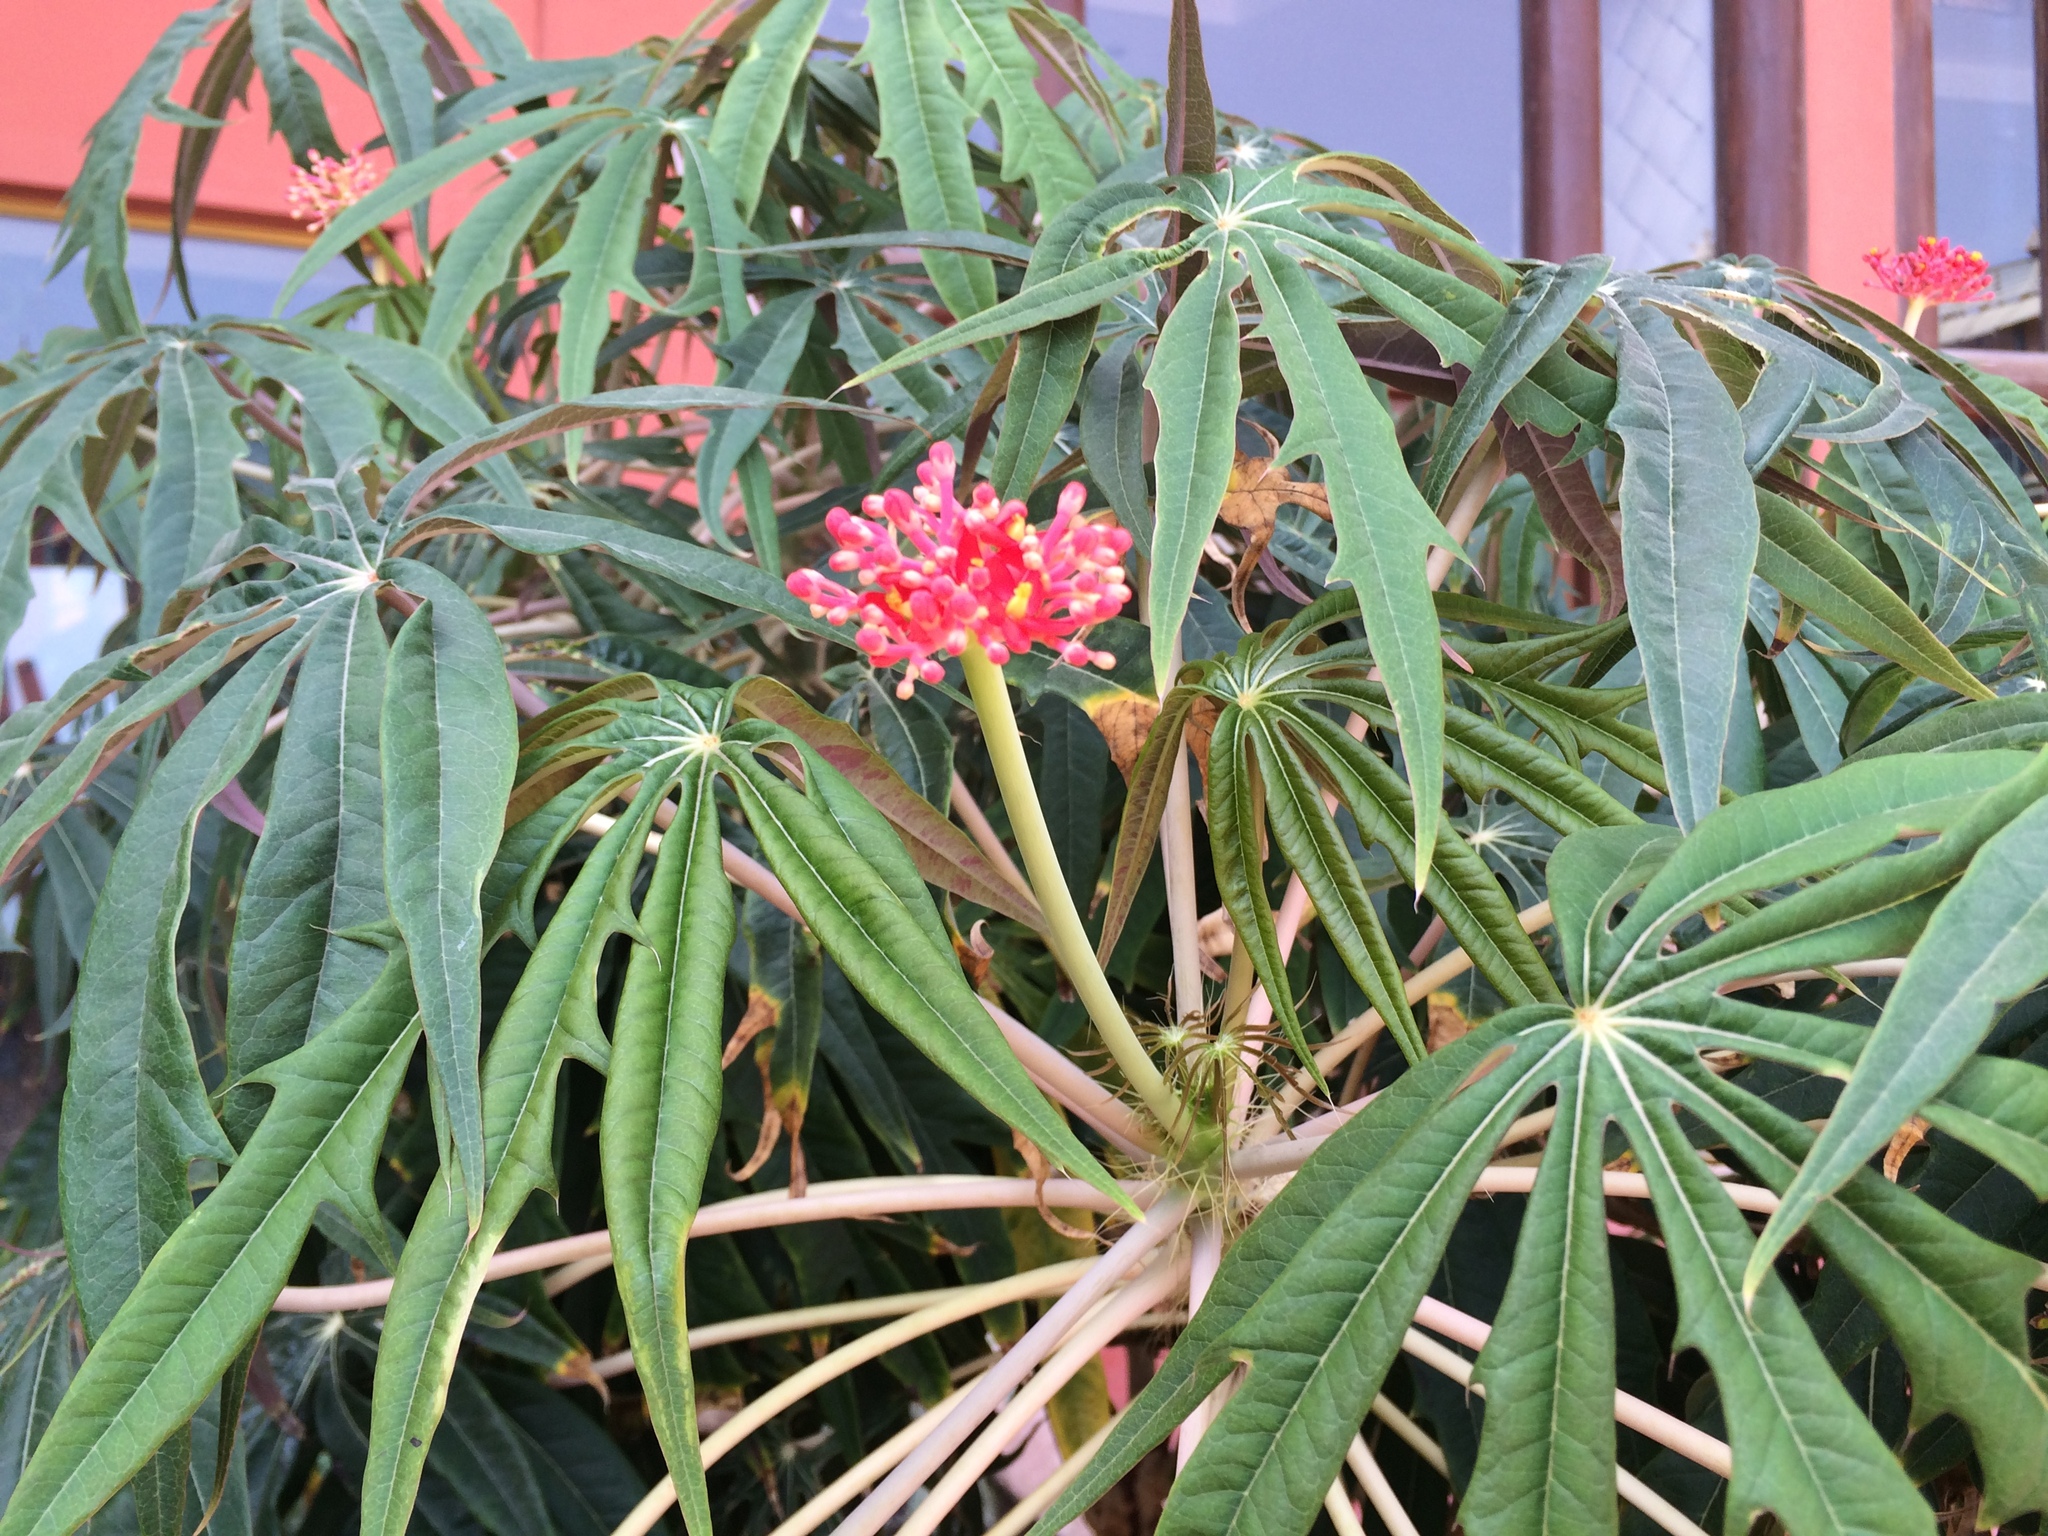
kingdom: Plantae
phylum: Tracheophyta
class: Magnoliopsida
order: Malpighiales
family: Euphorbiaceae
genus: Jatropha
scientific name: Jatropha multifida
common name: Coralbush
